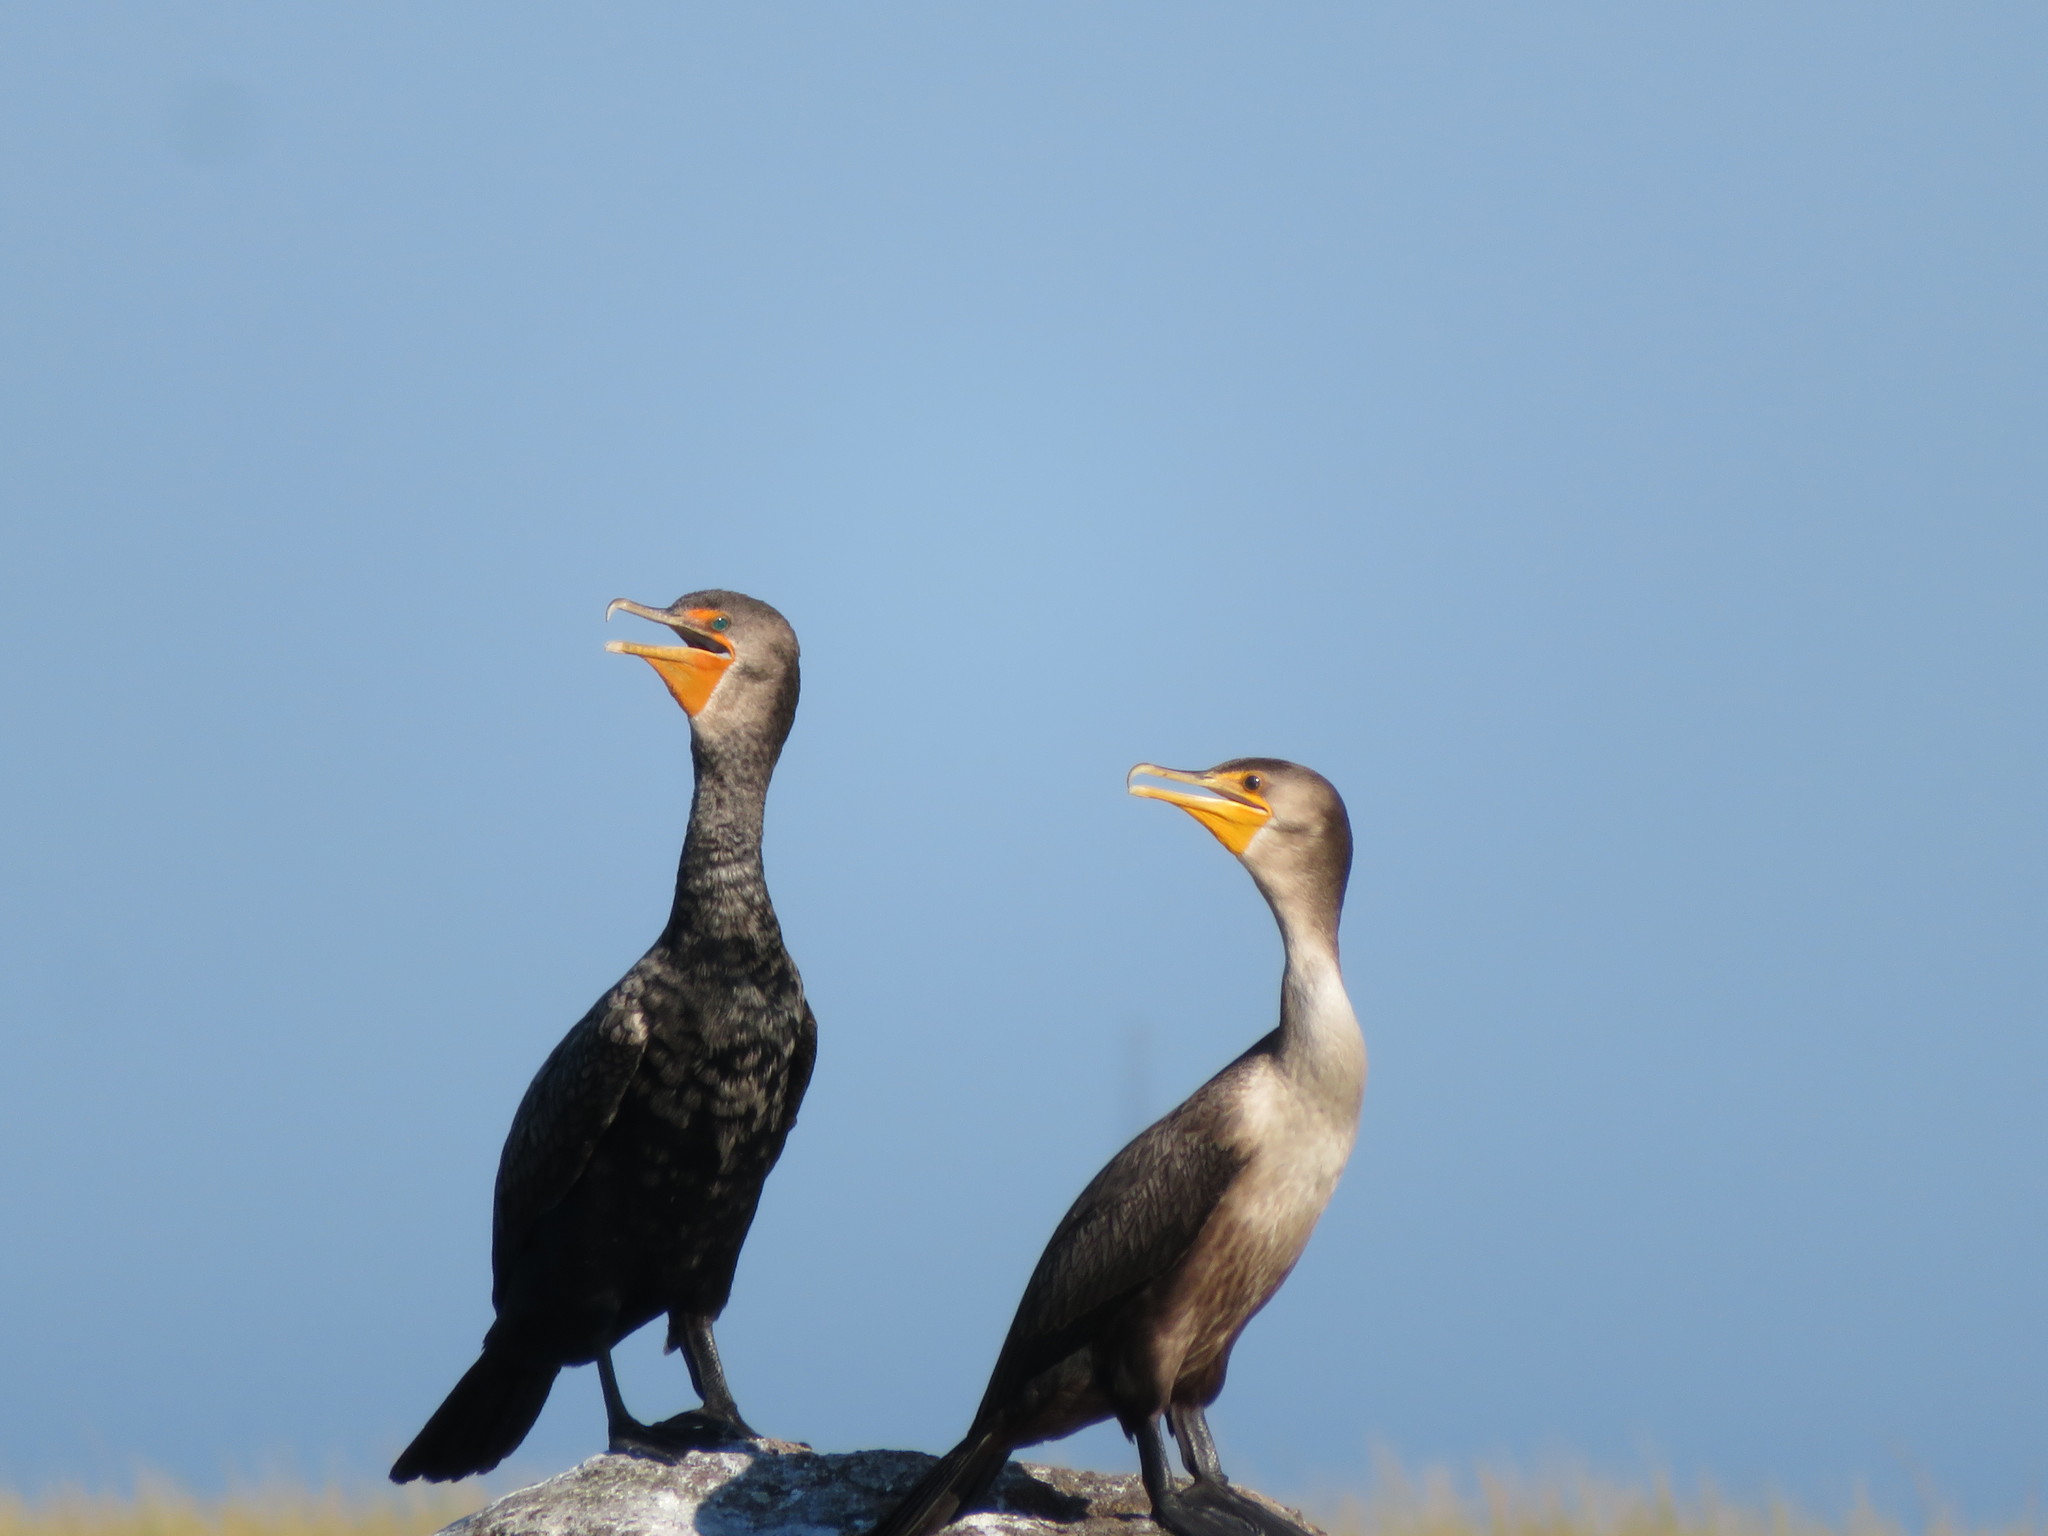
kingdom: Animalia
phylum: Chordata
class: Aves
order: Suliformes
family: Phalacrocoracidae
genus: Phalacrocorax
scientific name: Phalacrocorax auritus
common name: Double-crested cormorant
